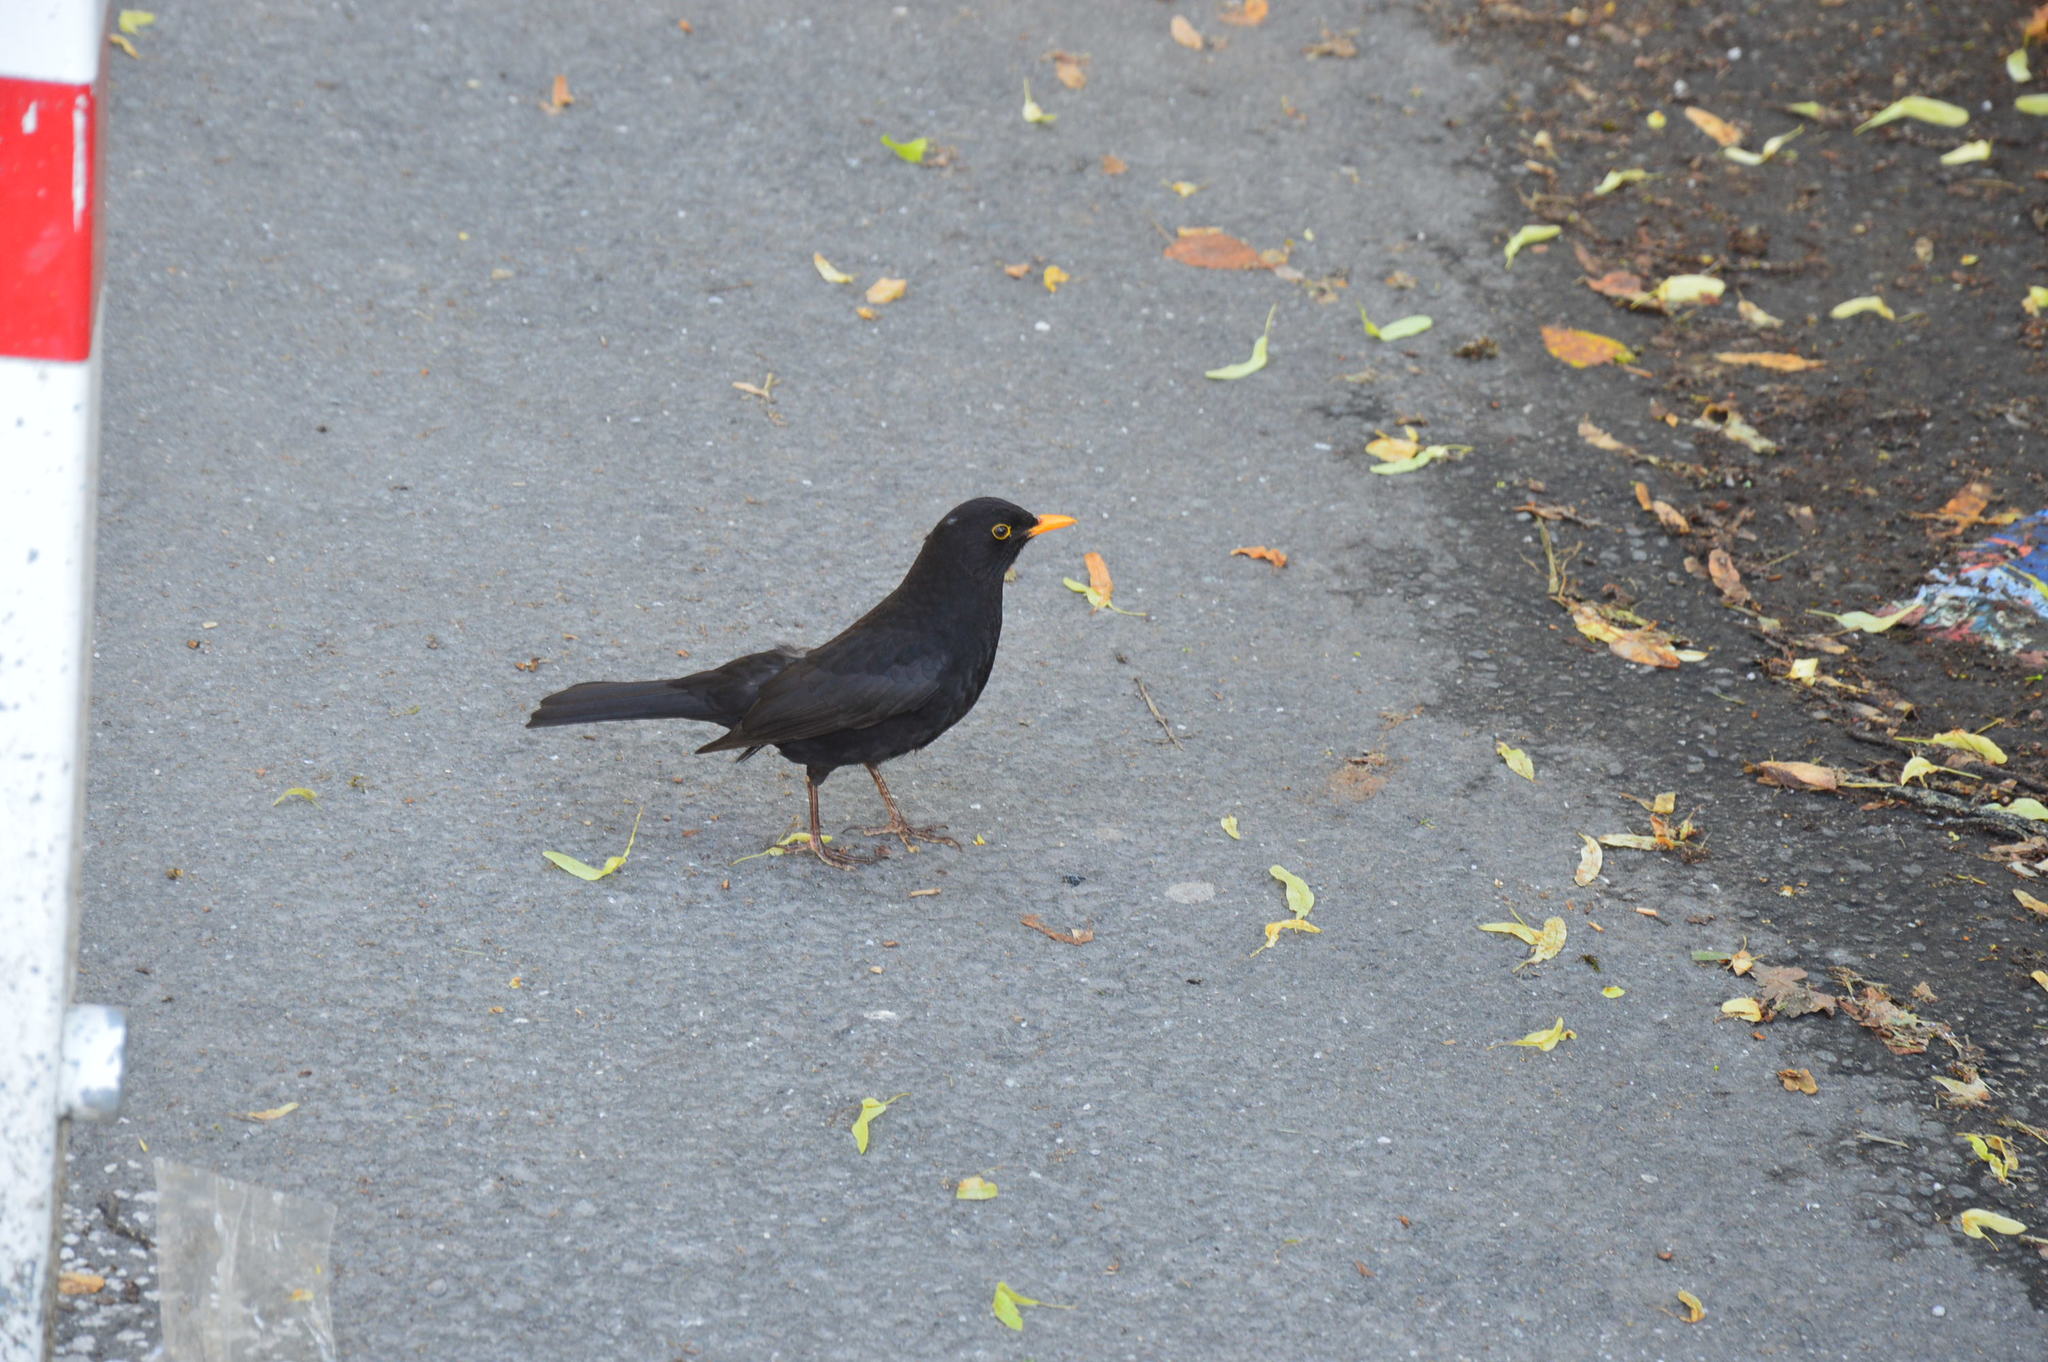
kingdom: Animalia
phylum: Chordata
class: Aves
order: Passeriformes
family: Turdidae
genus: Turdus
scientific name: Turdus merula
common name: Common blackbird
